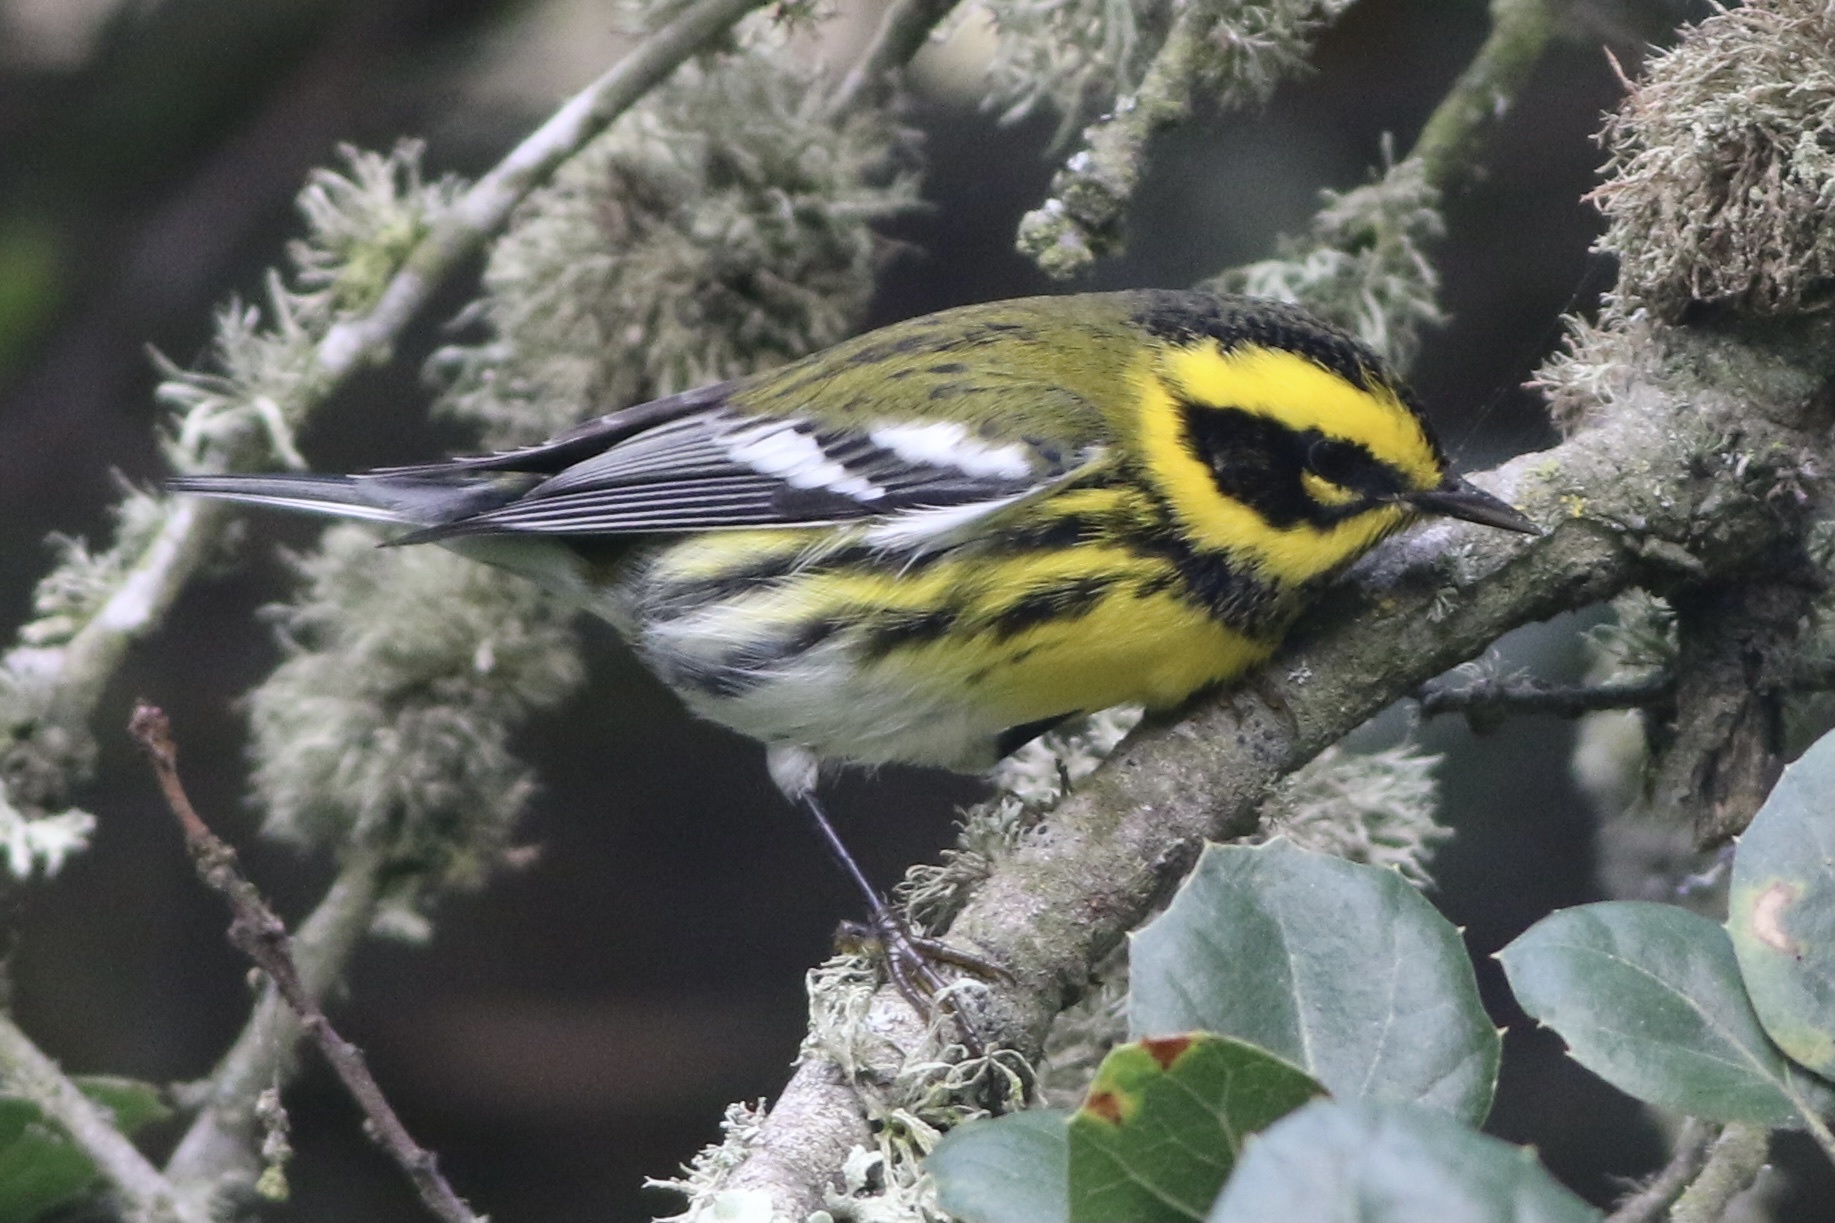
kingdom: Animalia
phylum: Chordata
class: Aves
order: Passeriformes
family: Parulidae
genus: Setophaga
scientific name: Setophaga townsendi
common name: Townsend's warbler
